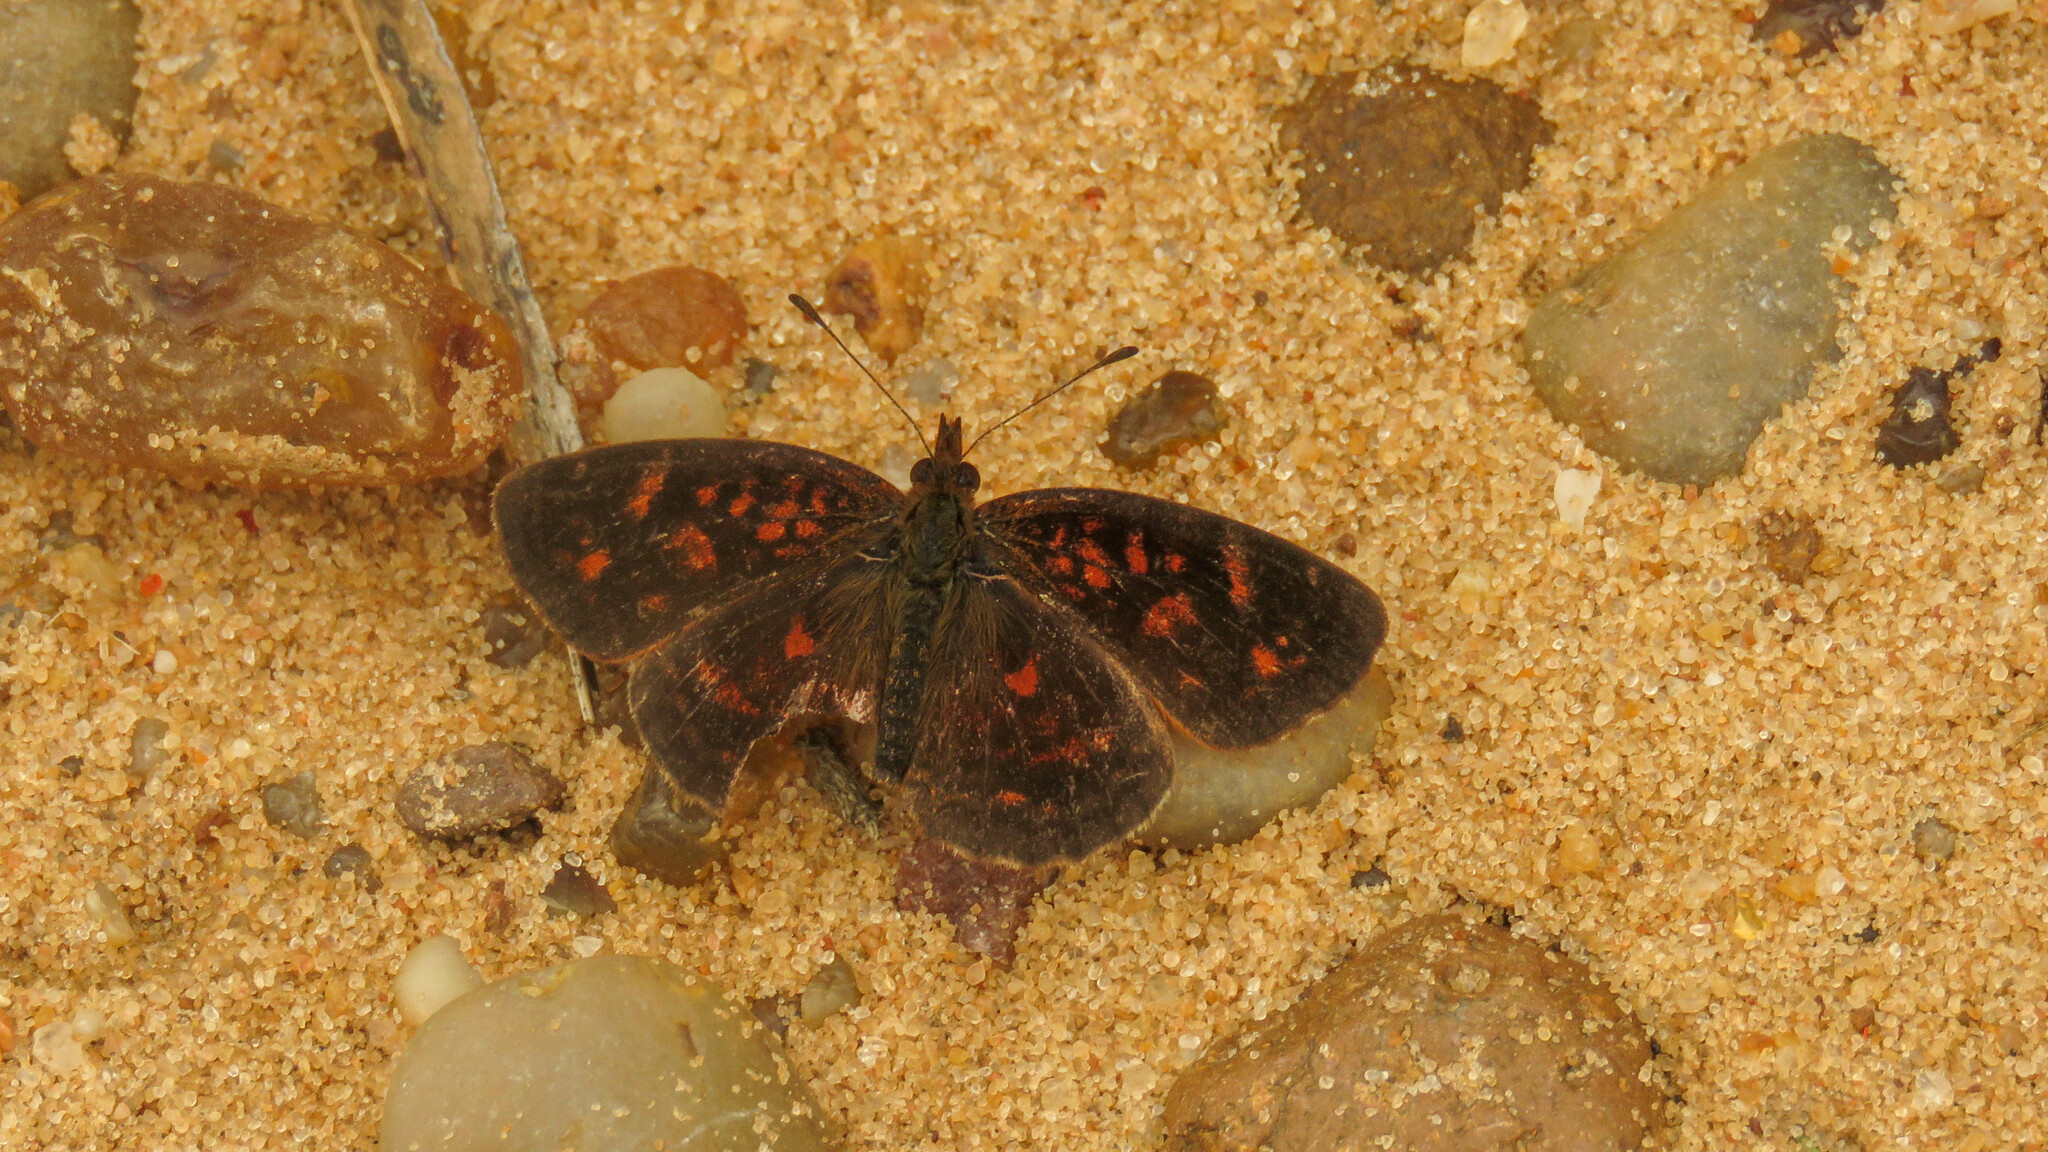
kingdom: Animalia
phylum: Arthropoda
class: Insecta
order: Lepidoptera
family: Nymphalidae
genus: Ortilia
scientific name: Ortilia velica
